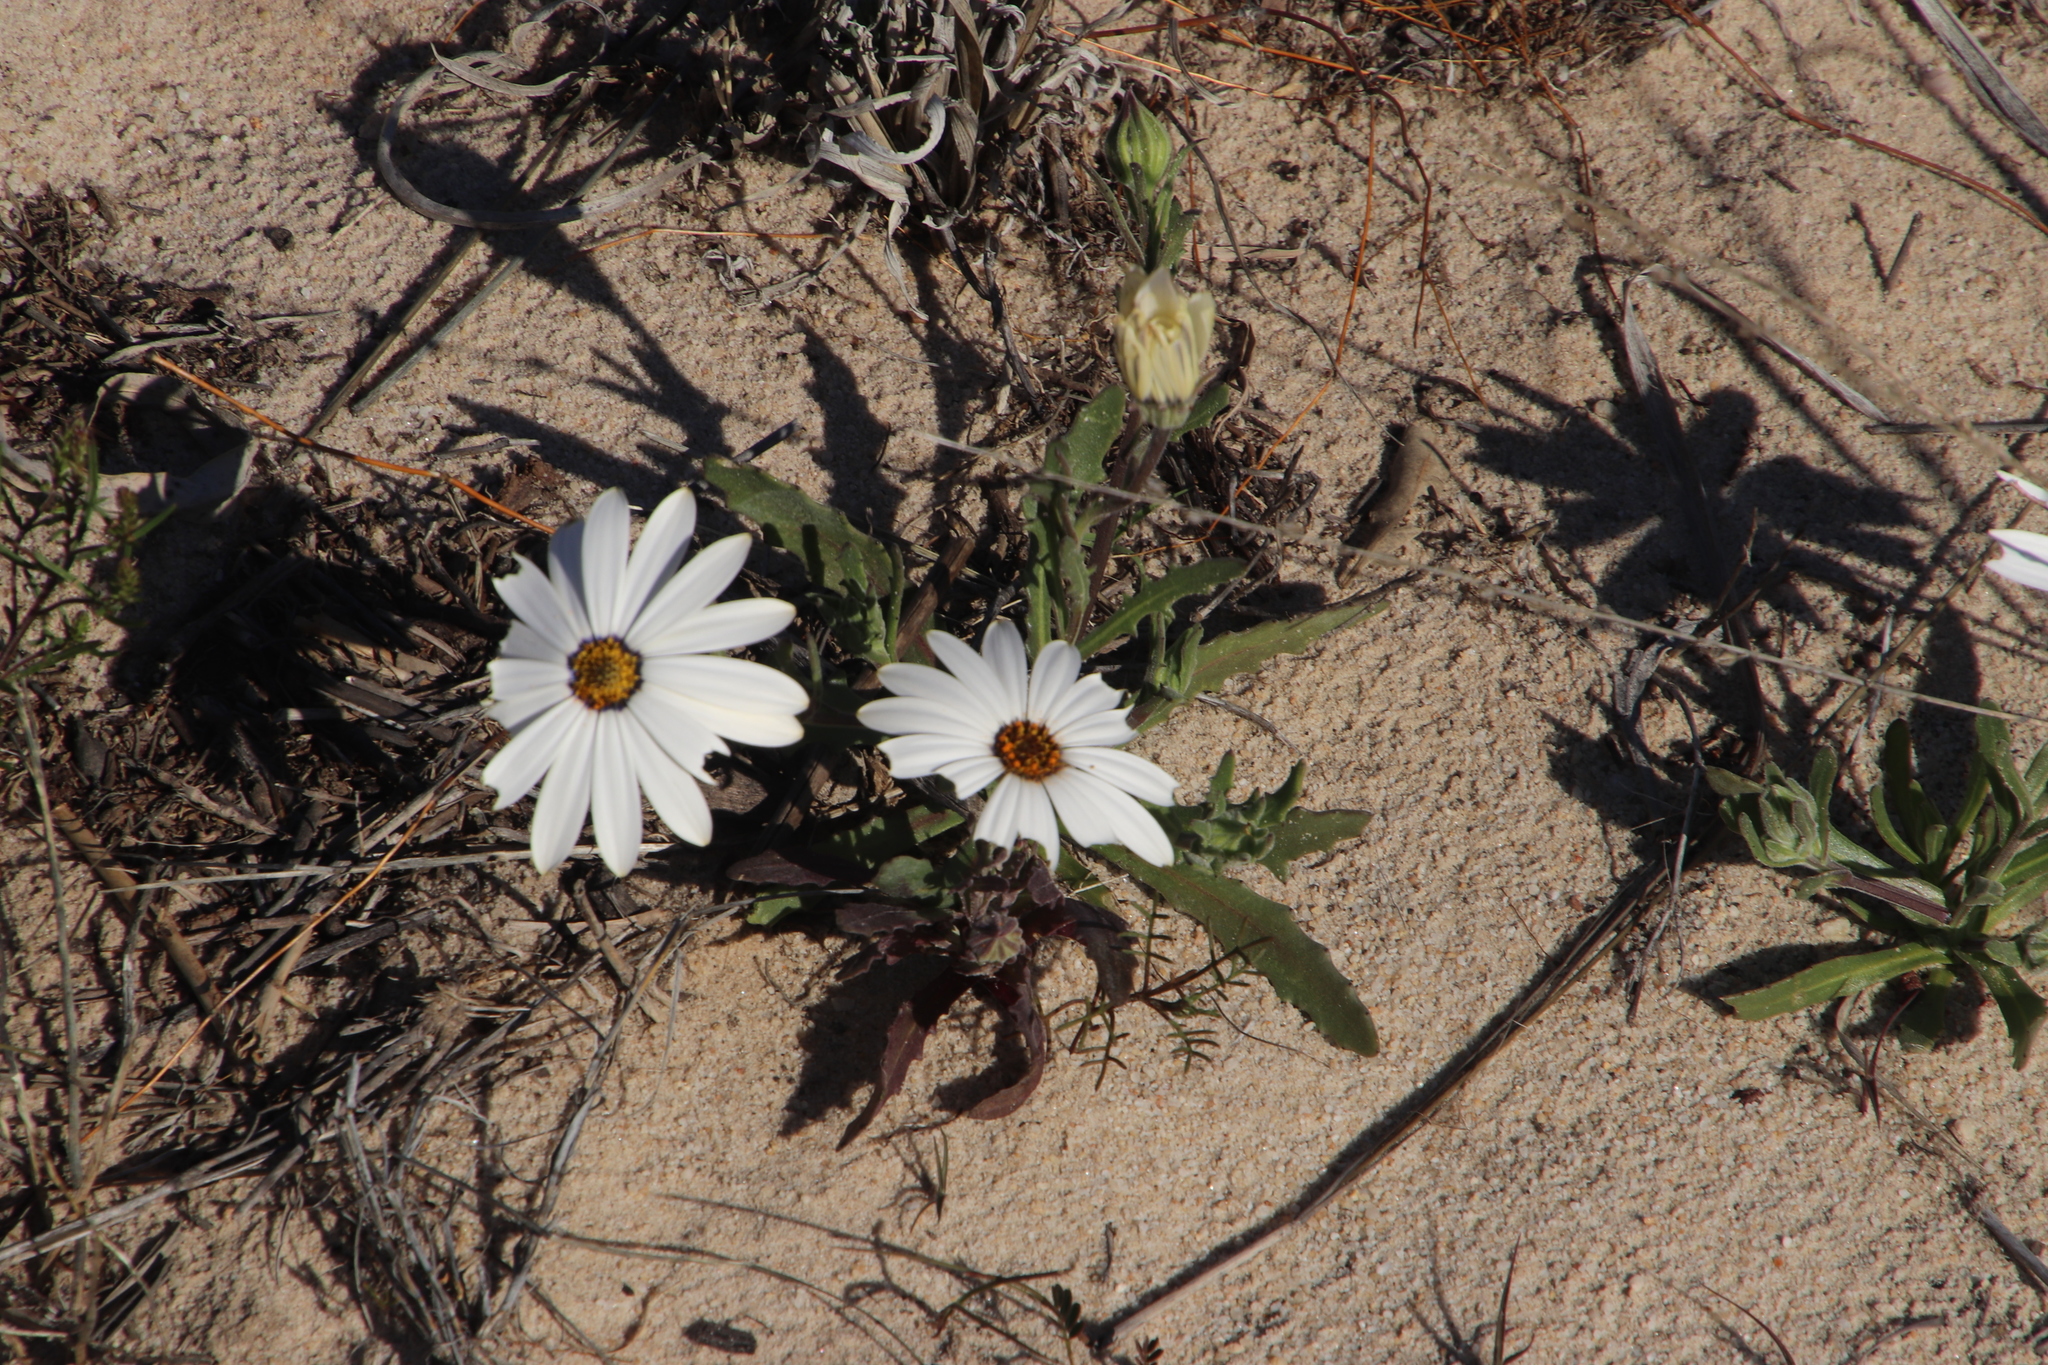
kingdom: Plantae
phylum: Tracheophyta
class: Magnoliopsida
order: Asterales
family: Asteraceae
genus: Dimorphotheca
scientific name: Dimorphotheca pluvialis
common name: Weather prophet
